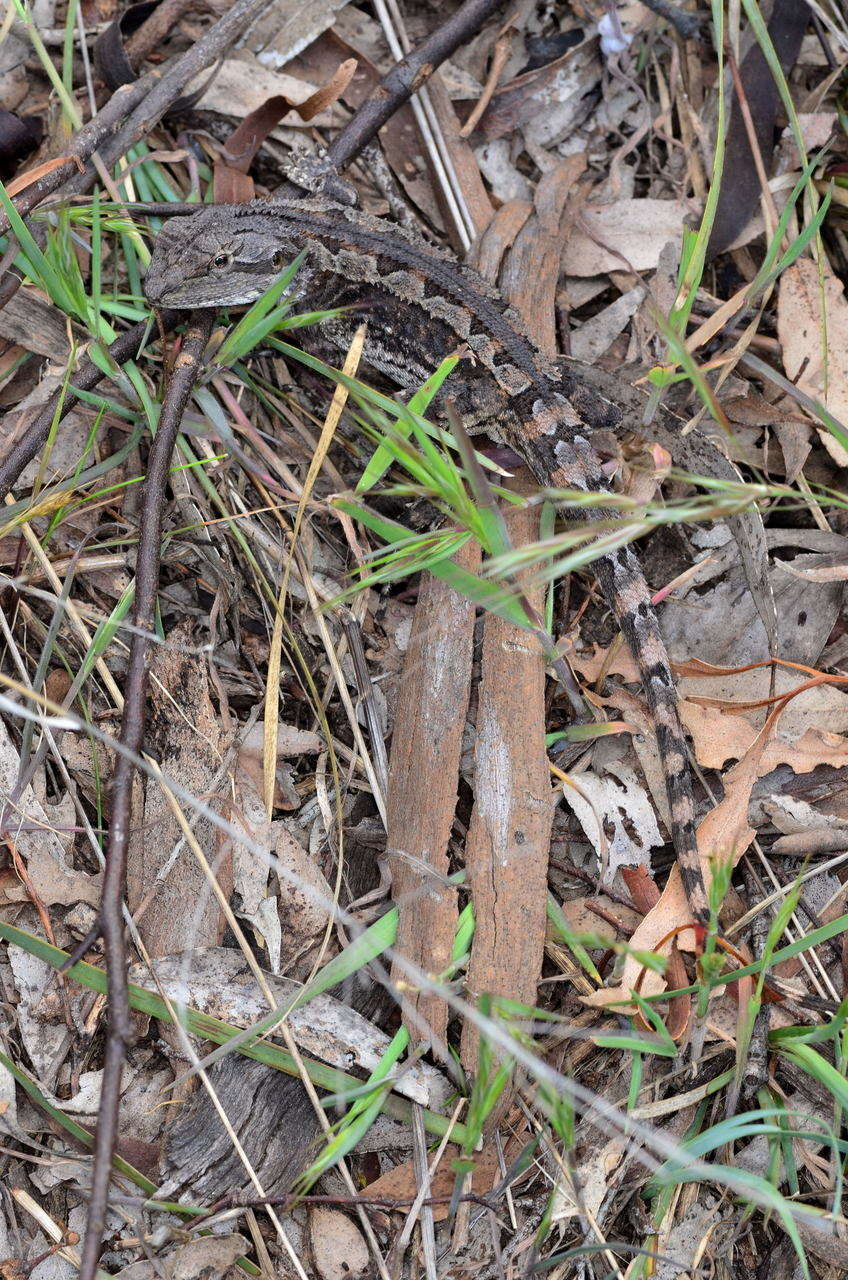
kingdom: Animalia
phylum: Chordata
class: Squamata
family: Agamidae
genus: Amphibolurus
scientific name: Amphibolurus muricatus
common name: Jacky lizard
